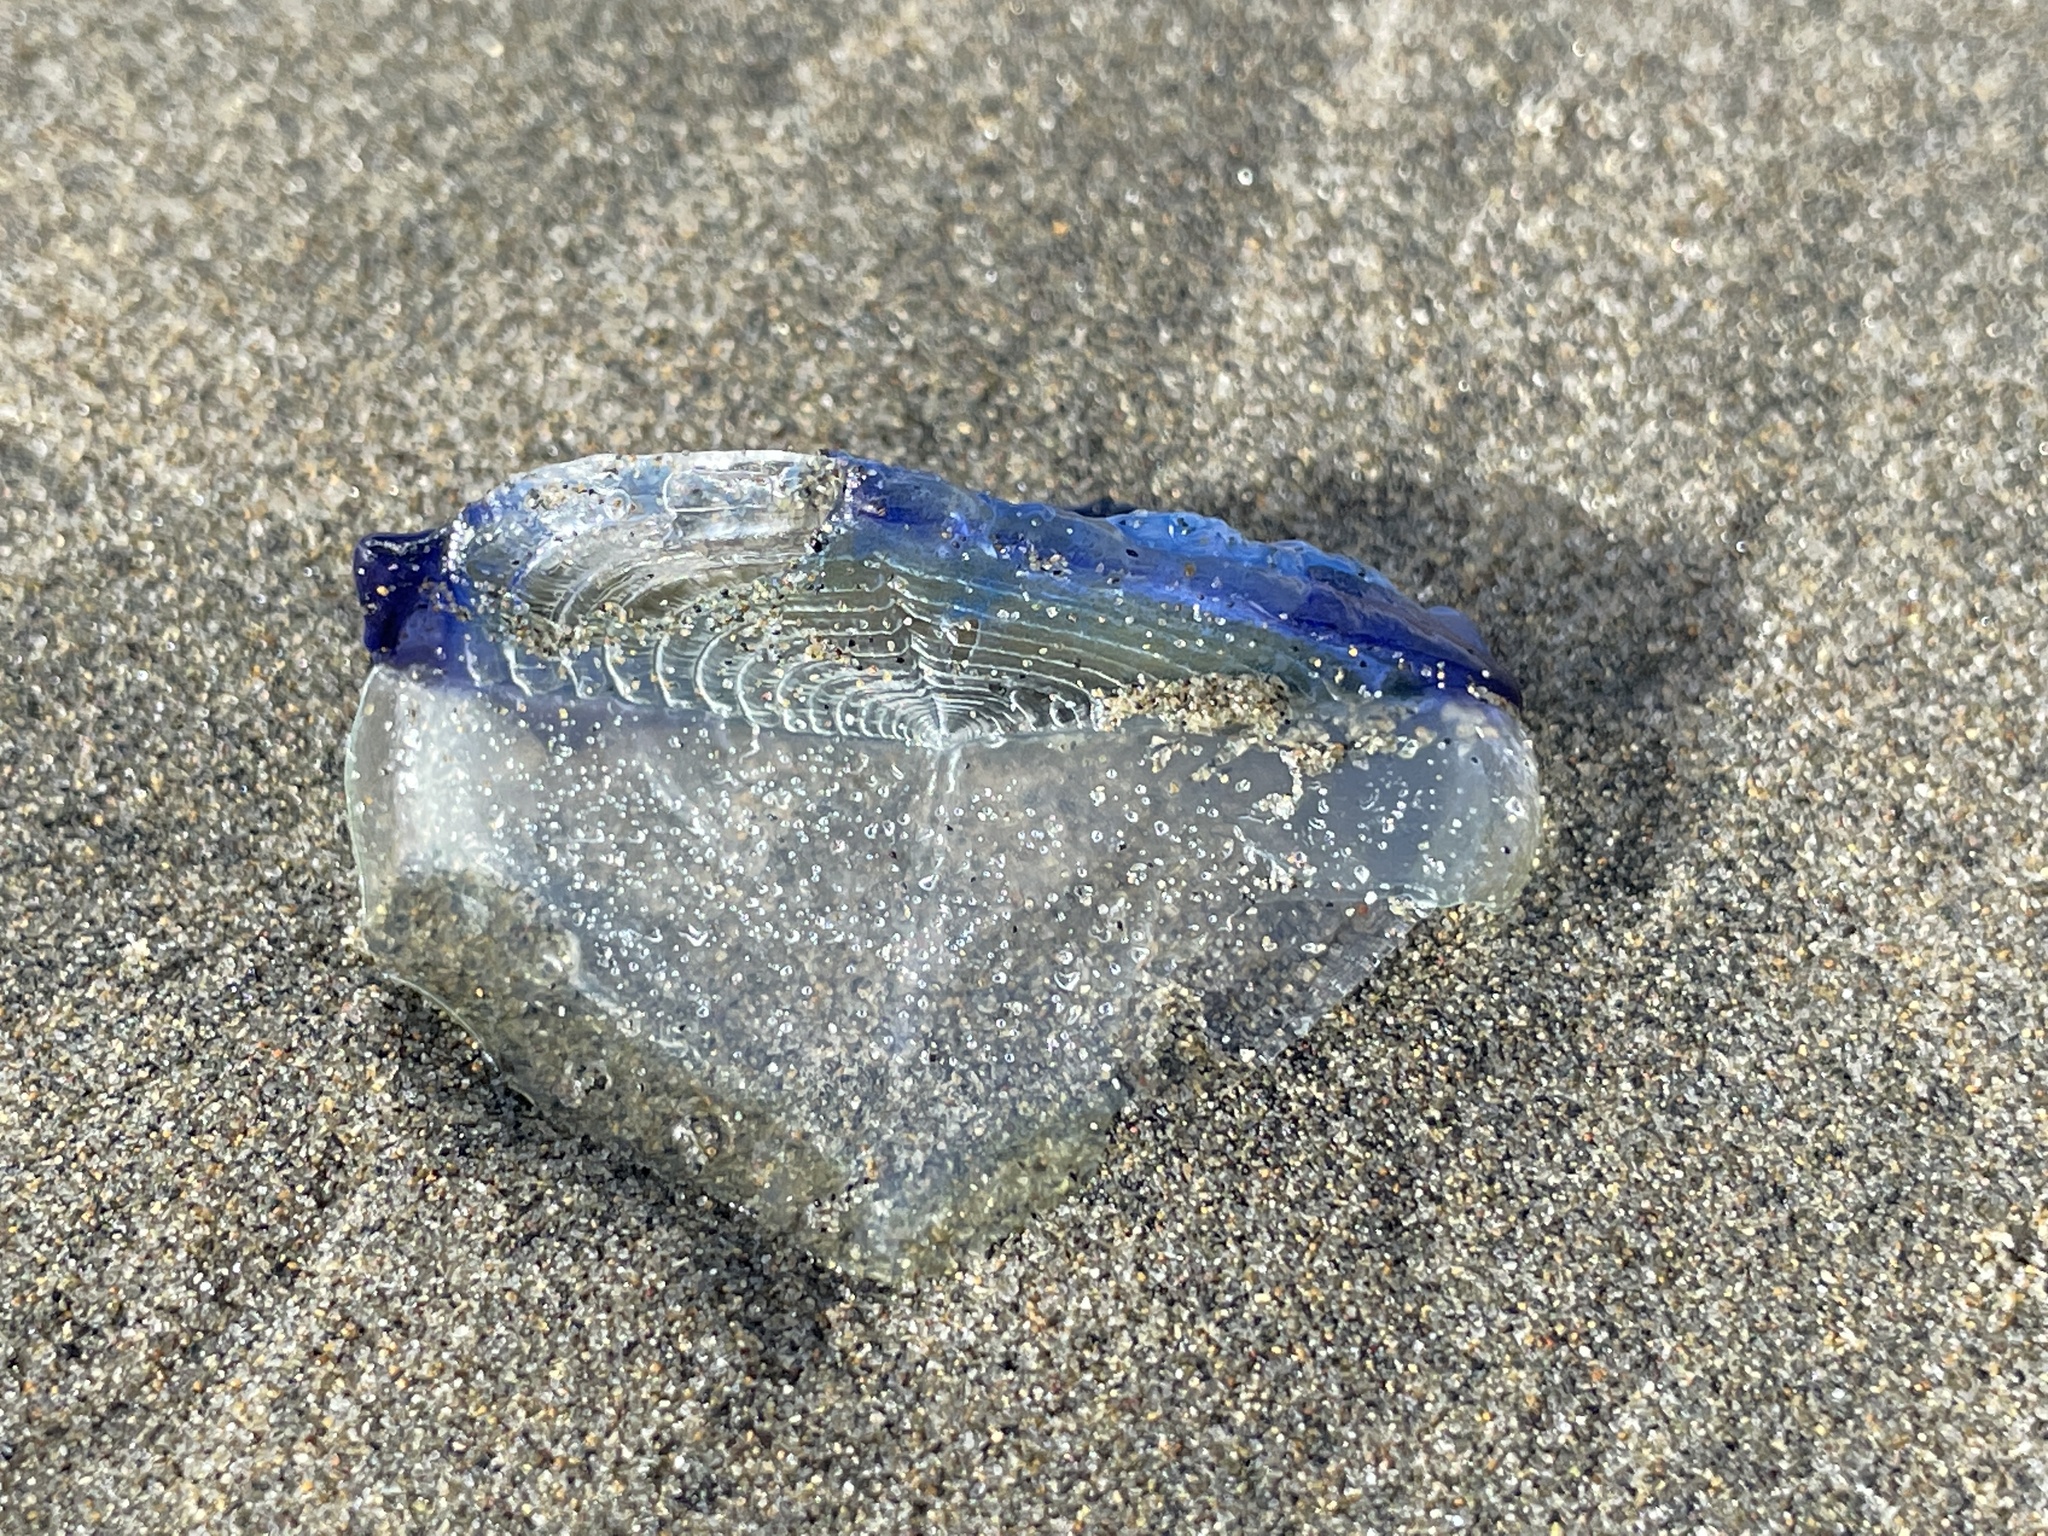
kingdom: Animalia
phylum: Cnidaria
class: Hydrozoa
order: Anthoathecata
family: Porpitidae
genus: Velella
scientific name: Velella velella
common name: By-the-wind-sailor
